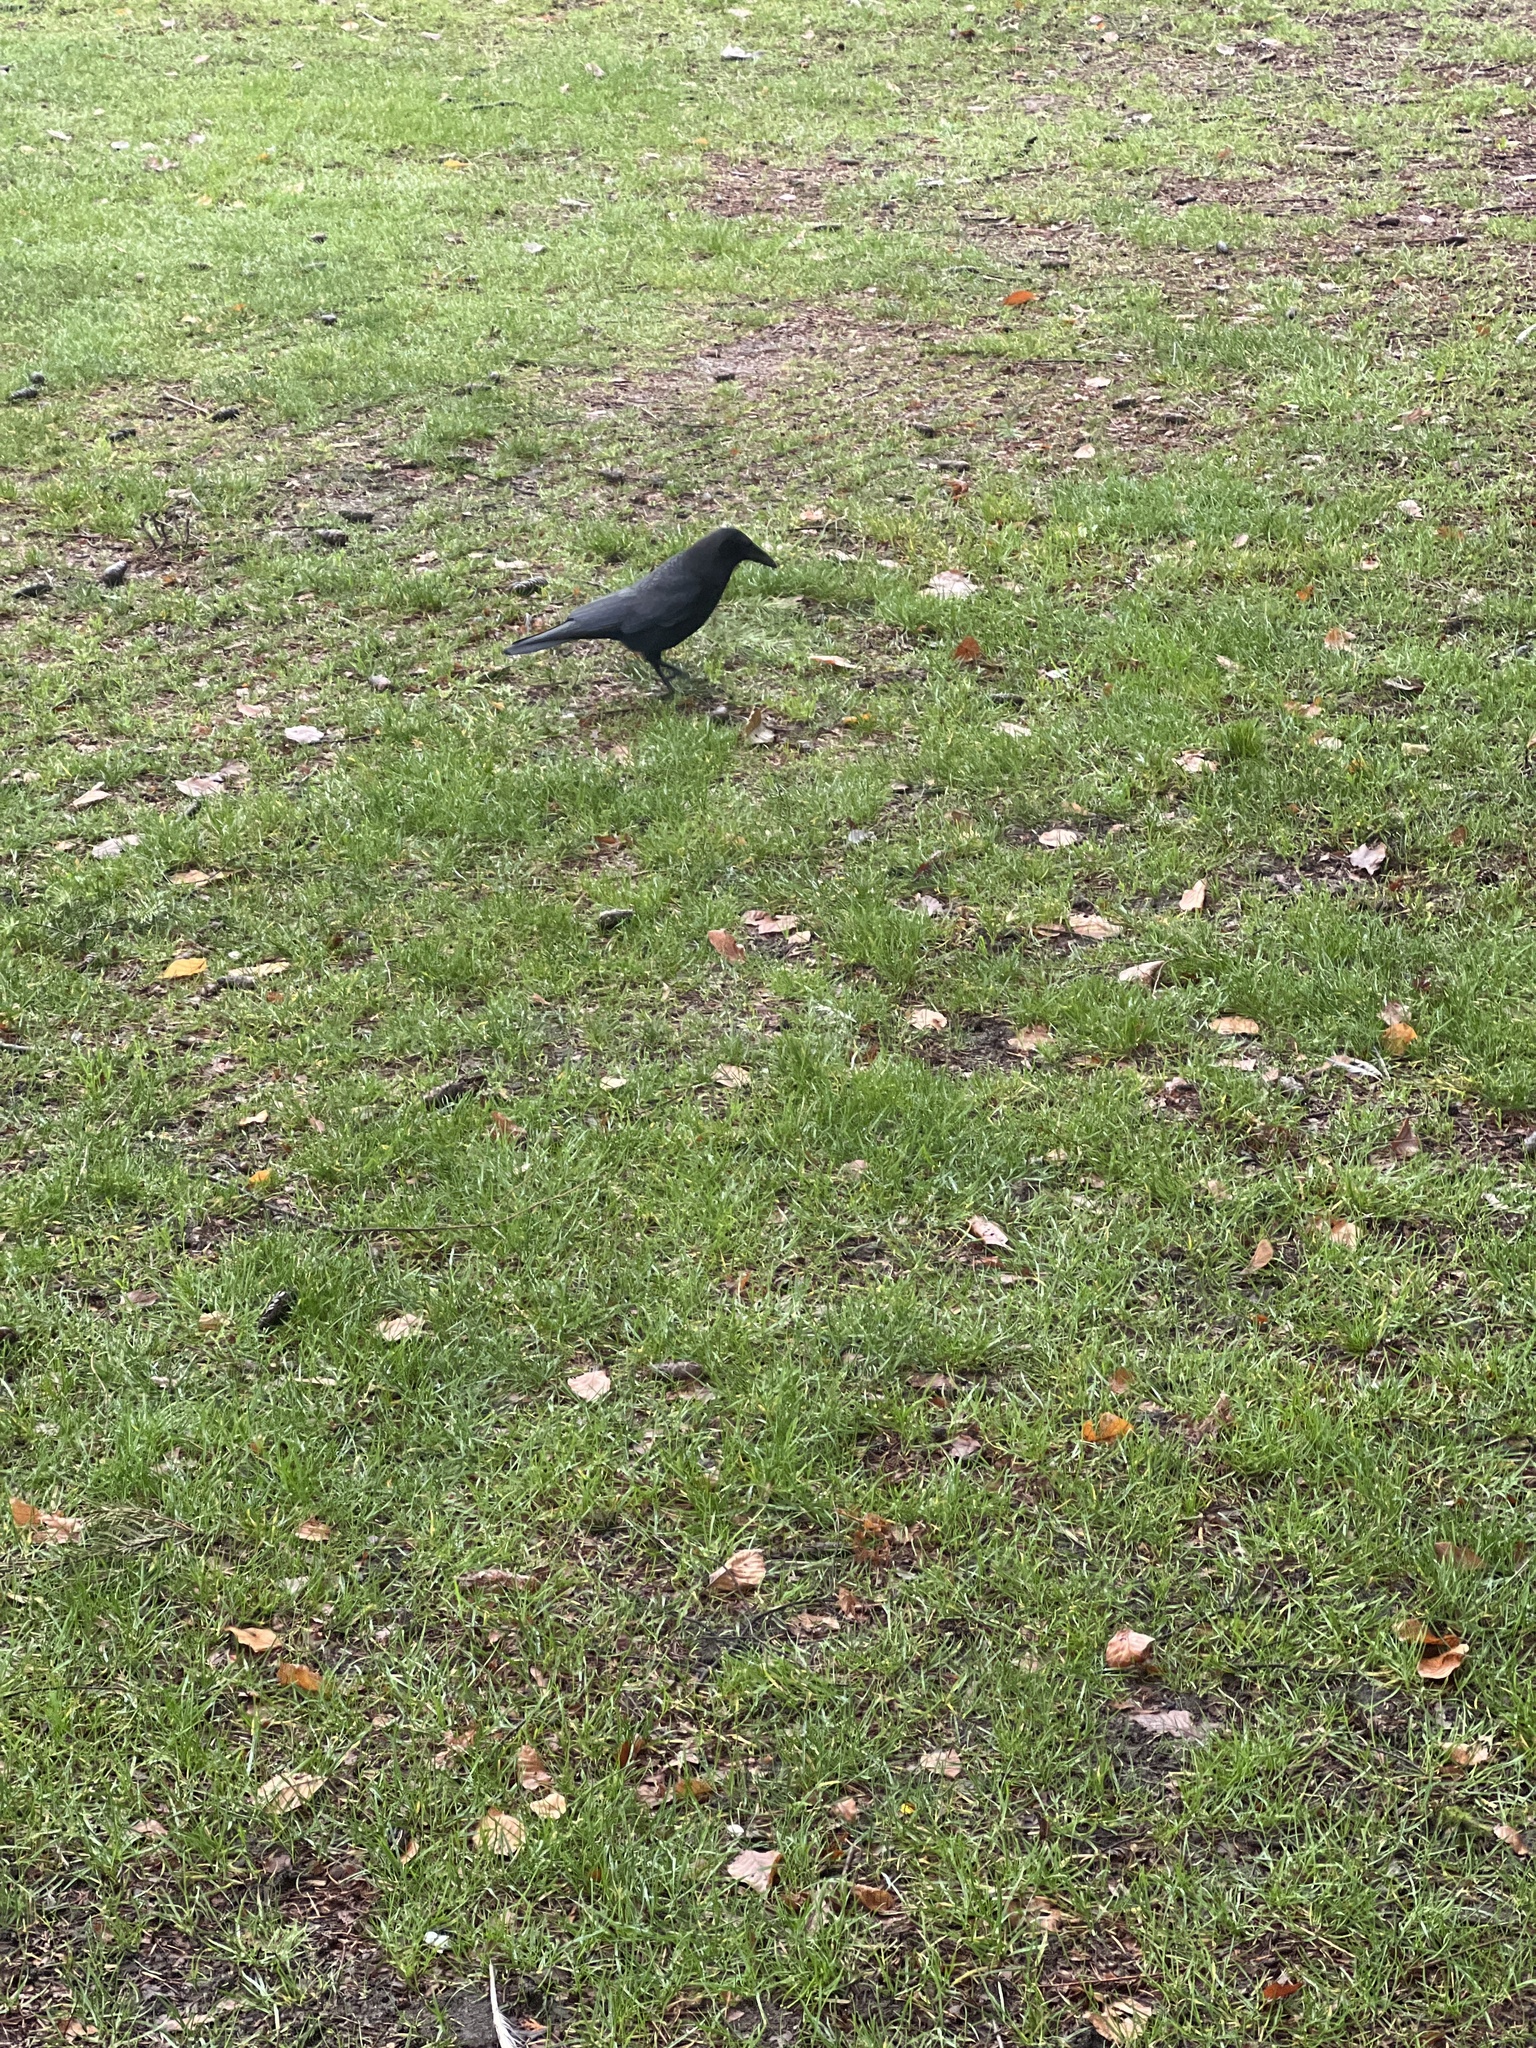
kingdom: Animalia
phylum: Chordata
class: Aves
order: Passeriformes
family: Corvidae
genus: Corvus
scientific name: Corvus brachyrhynchos
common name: American crow
